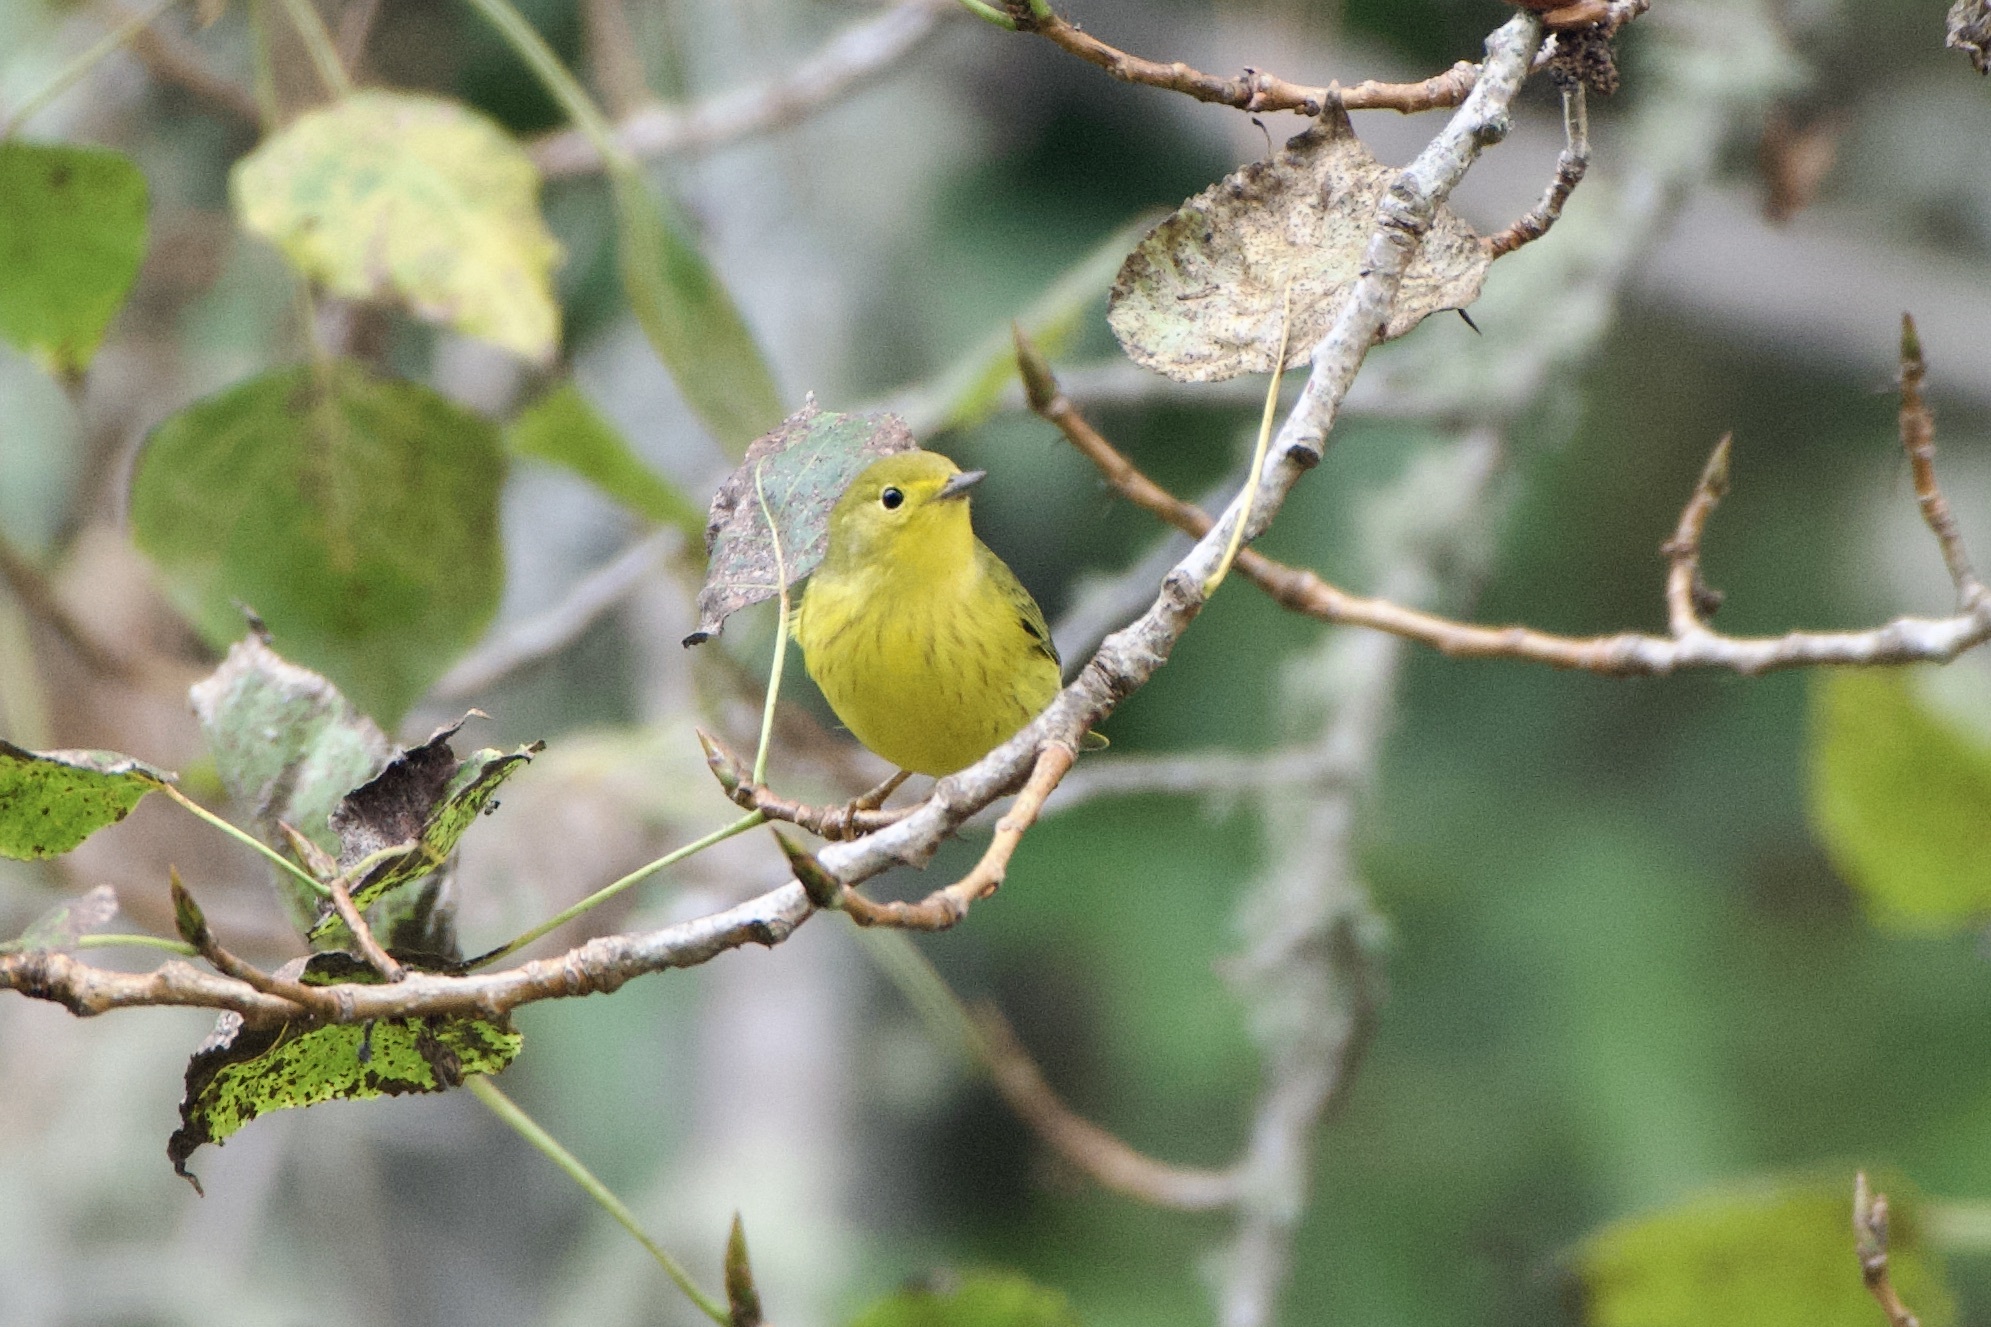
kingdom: Animalia
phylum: Chordata
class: Aves
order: Passeriformes
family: Parulidae
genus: Setophaga
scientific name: Setophaga petechia
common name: Yellow warbler
